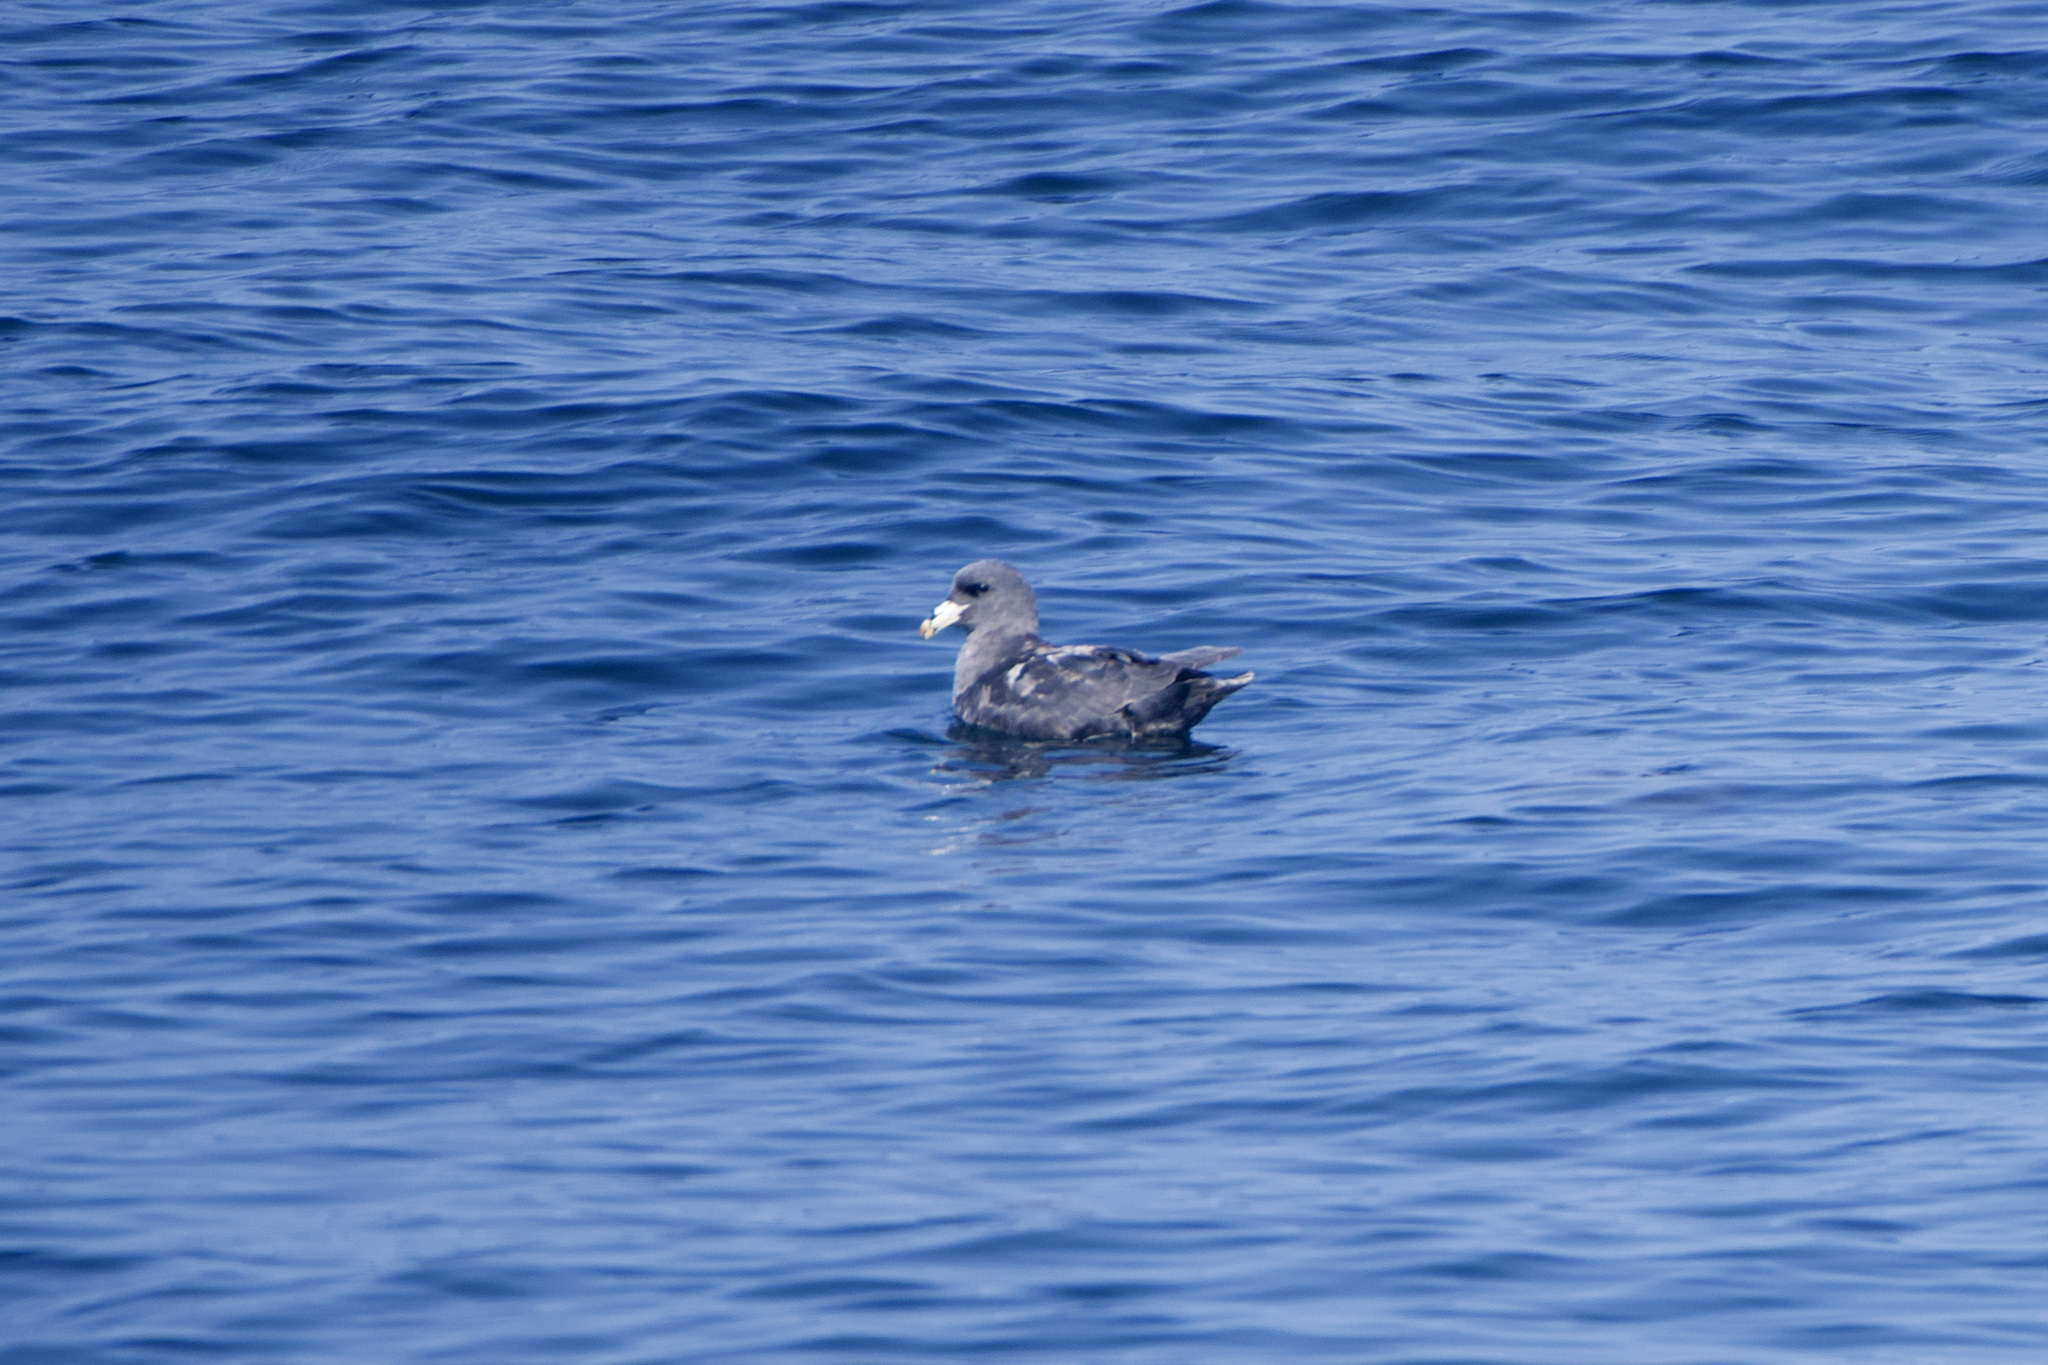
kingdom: Animalia
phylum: Chordata
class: Aves
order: Procellariiformes
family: Procellariidae
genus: Fulmarus
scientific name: Fulmarus glacialis
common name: Northern fulmar
